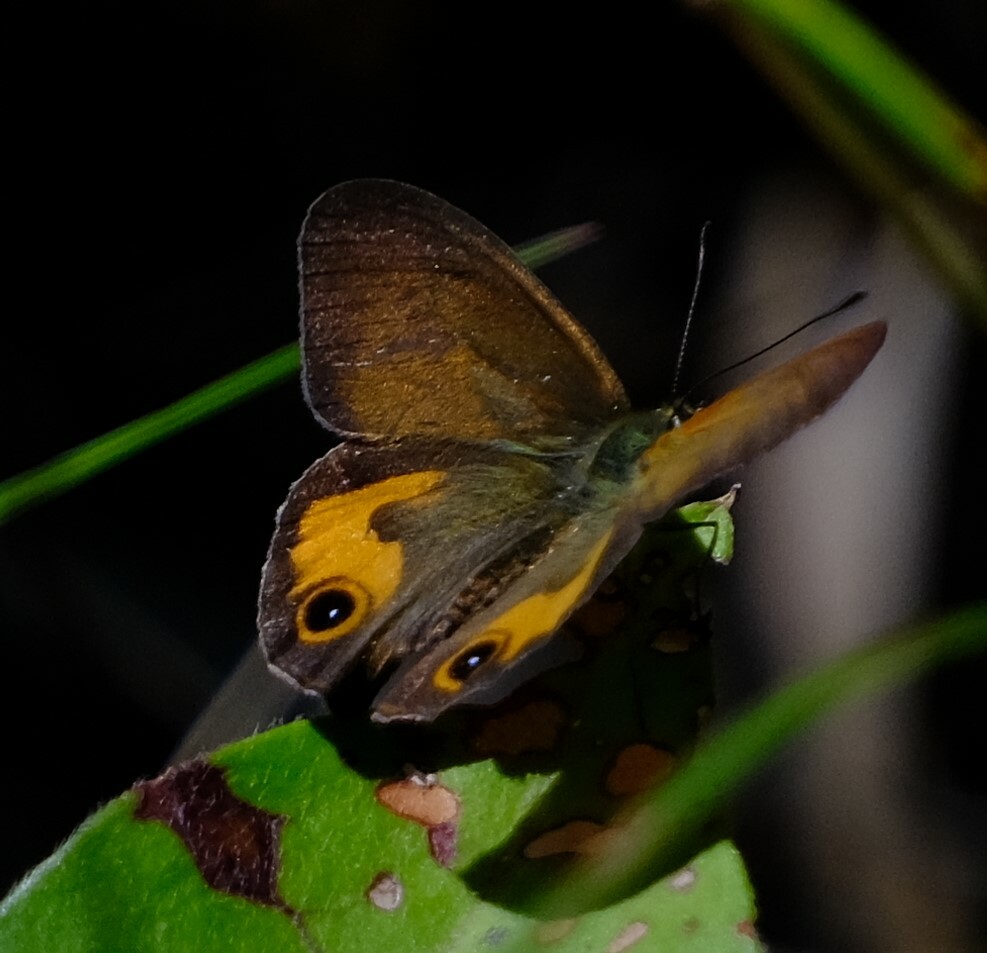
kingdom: Animalia
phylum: Arthropoda
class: Insecta
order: Lepidoptera
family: Nymphalidae
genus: Hypocysta
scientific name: Hypocysta metirius
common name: Brown ringlet
